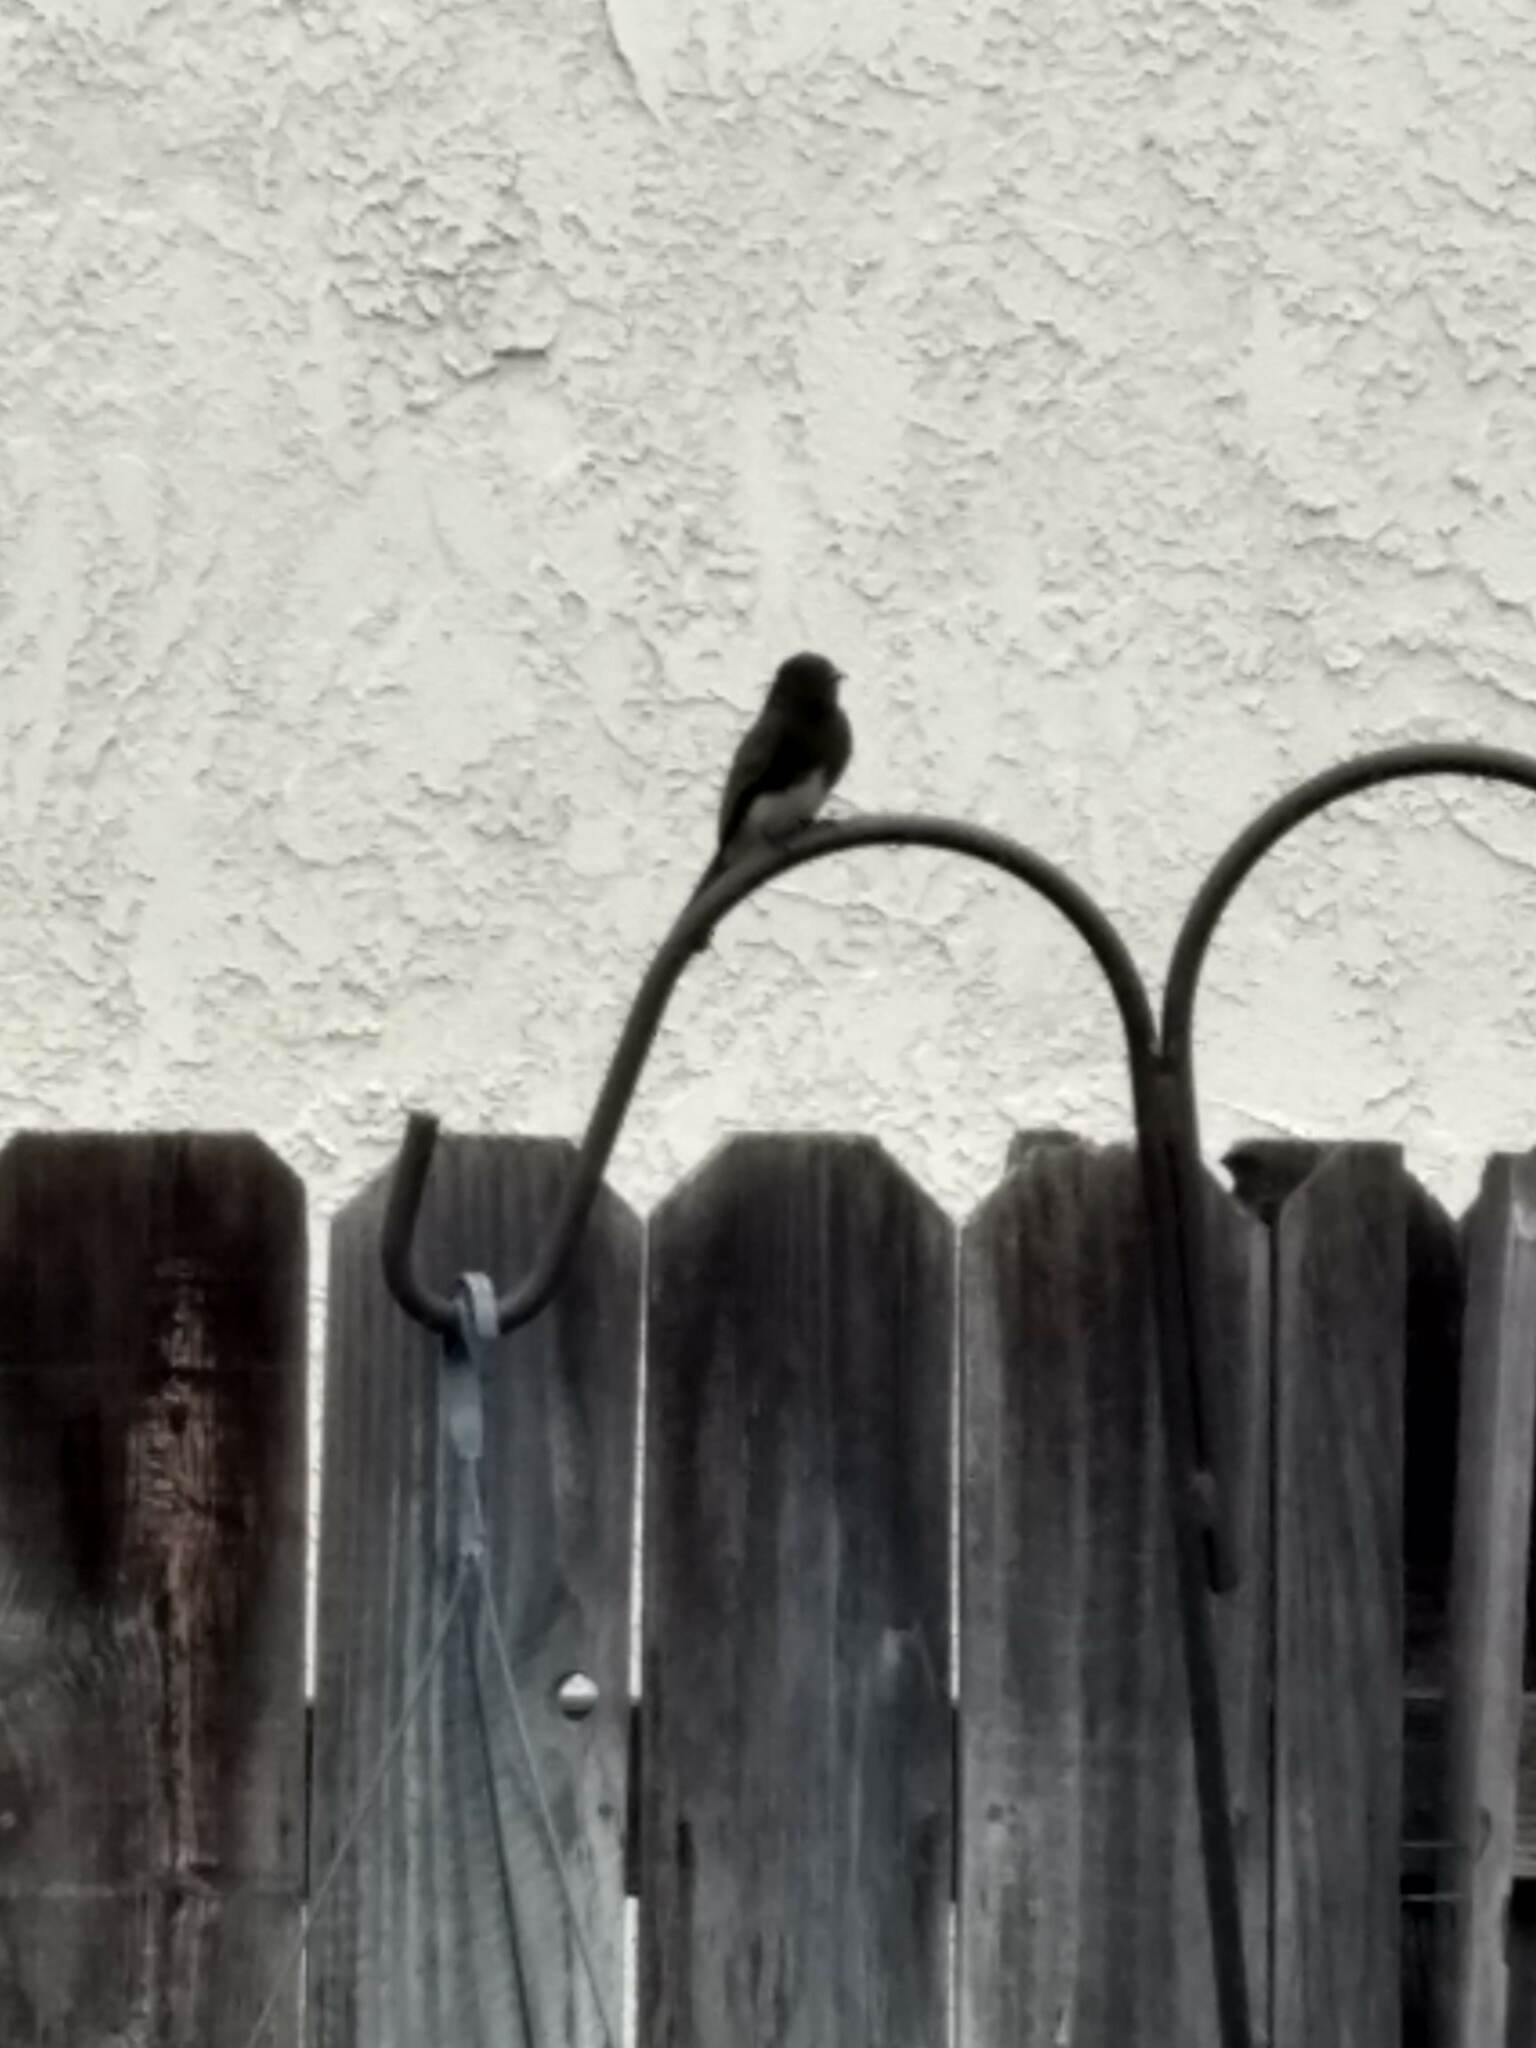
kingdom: Animalia
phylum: Chordata
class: Aves
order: Passeriformes
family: Tyrannidae
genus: Sayornis
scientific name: Sayornis nigricans
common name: Black phoebe
